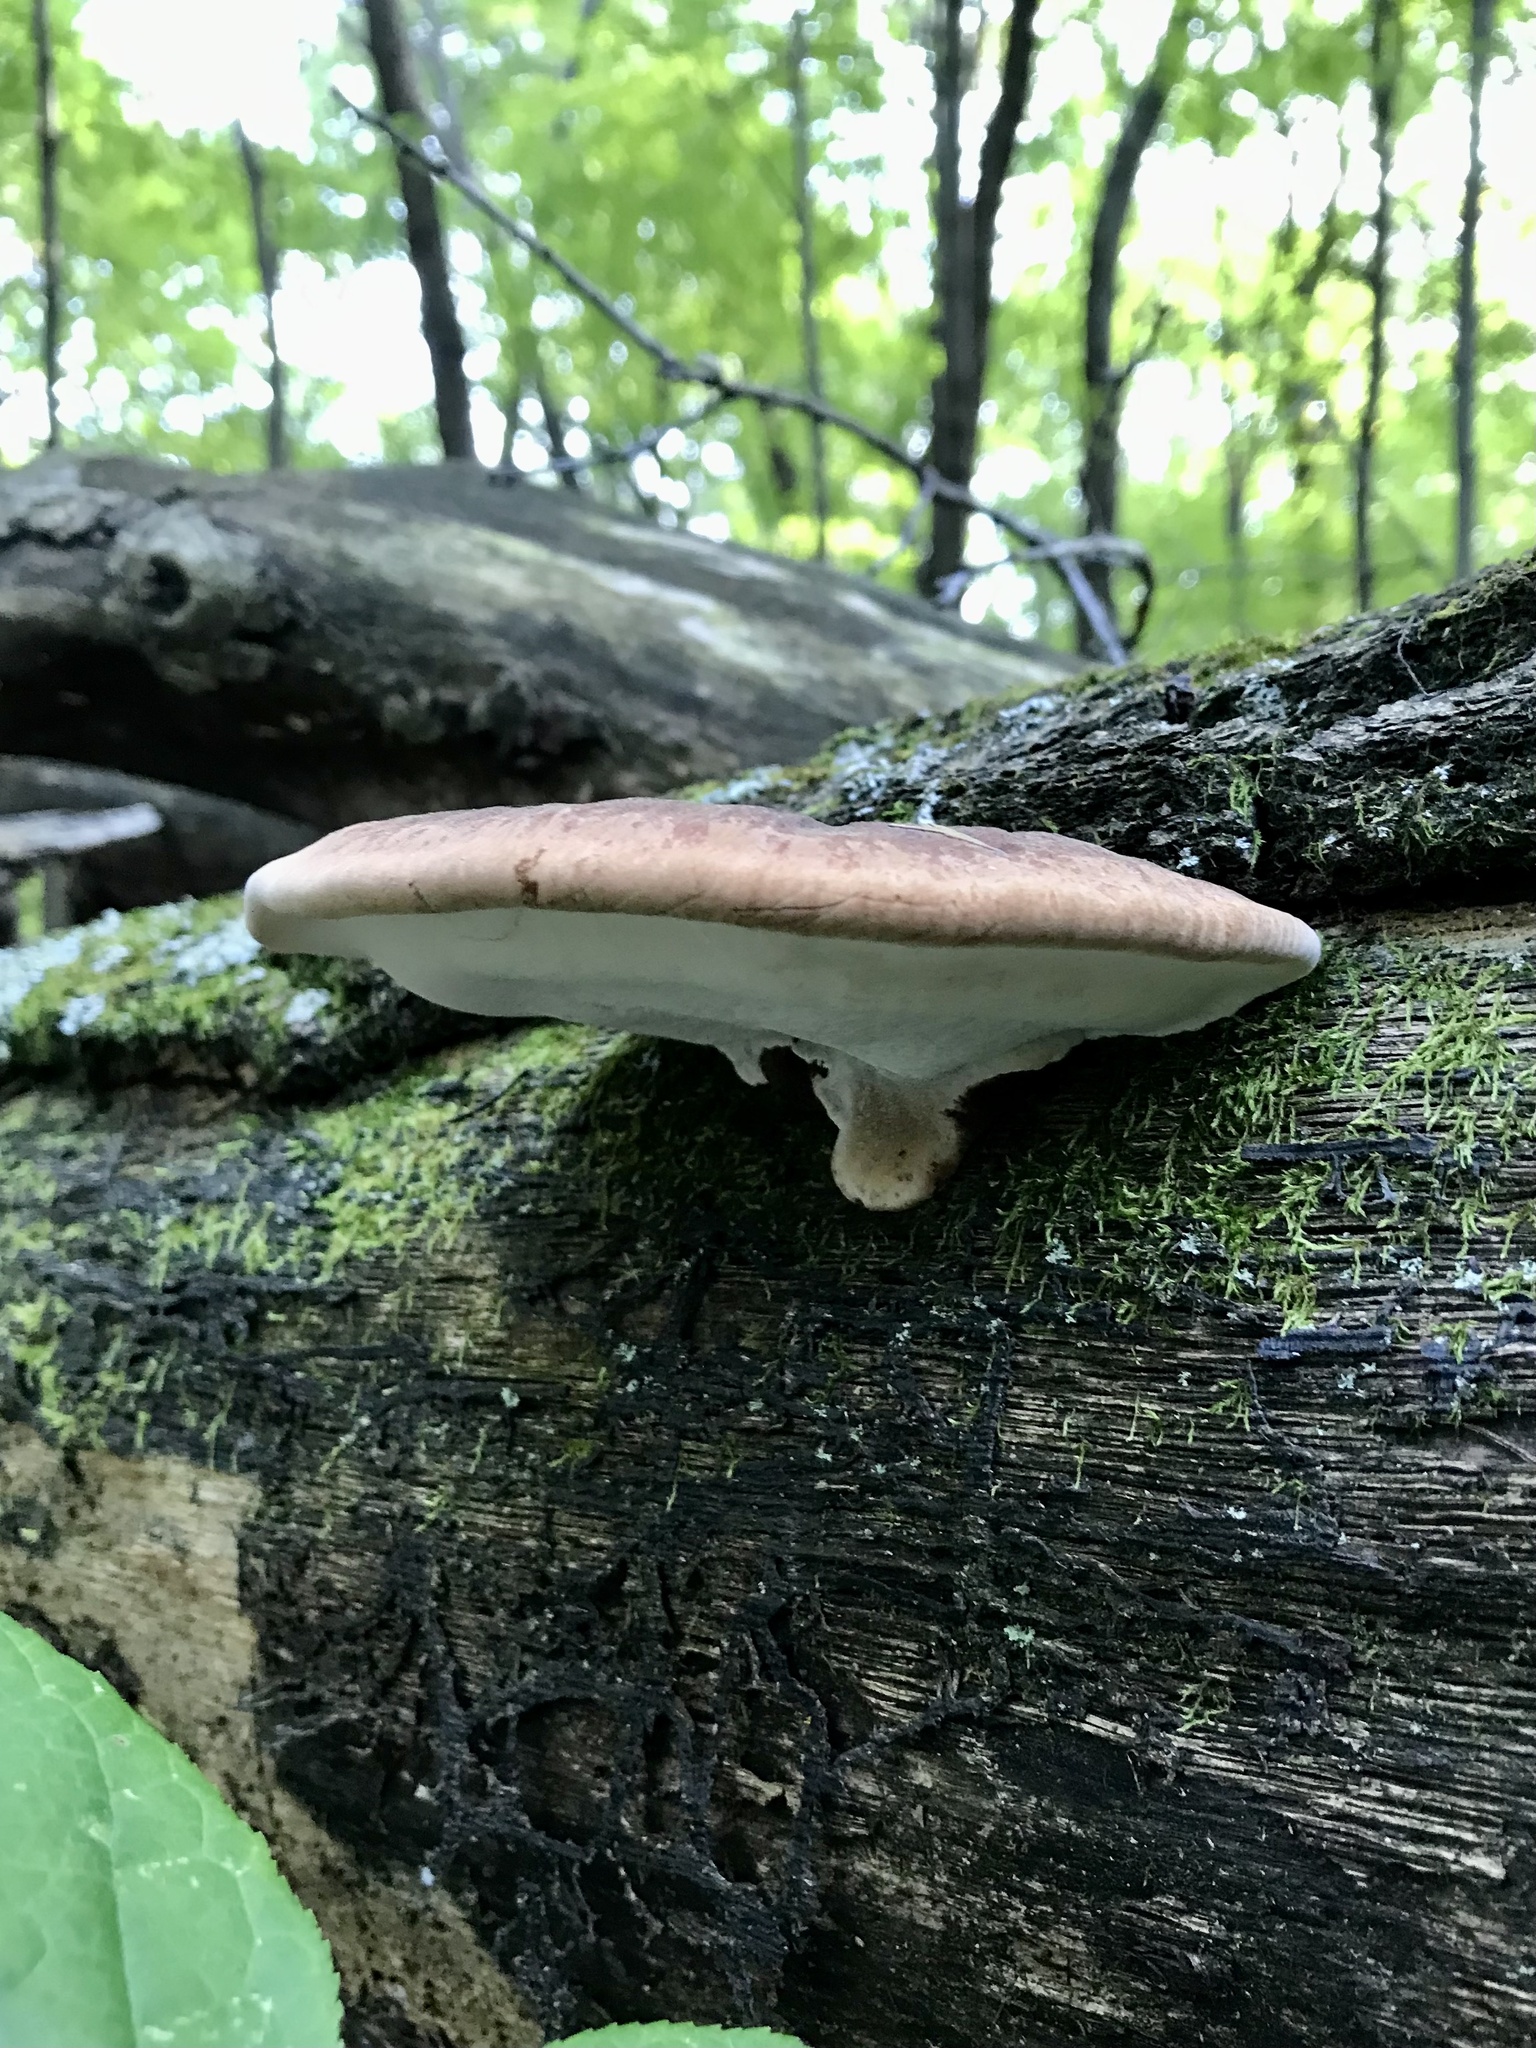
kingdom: Fungi
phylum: Basidiomycota
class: Agaricomycetes
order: Polyporales
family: Ischnodermataceae
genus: Ischnoderma
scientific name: Ischnoderma resinosum
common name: Resinous polypore
